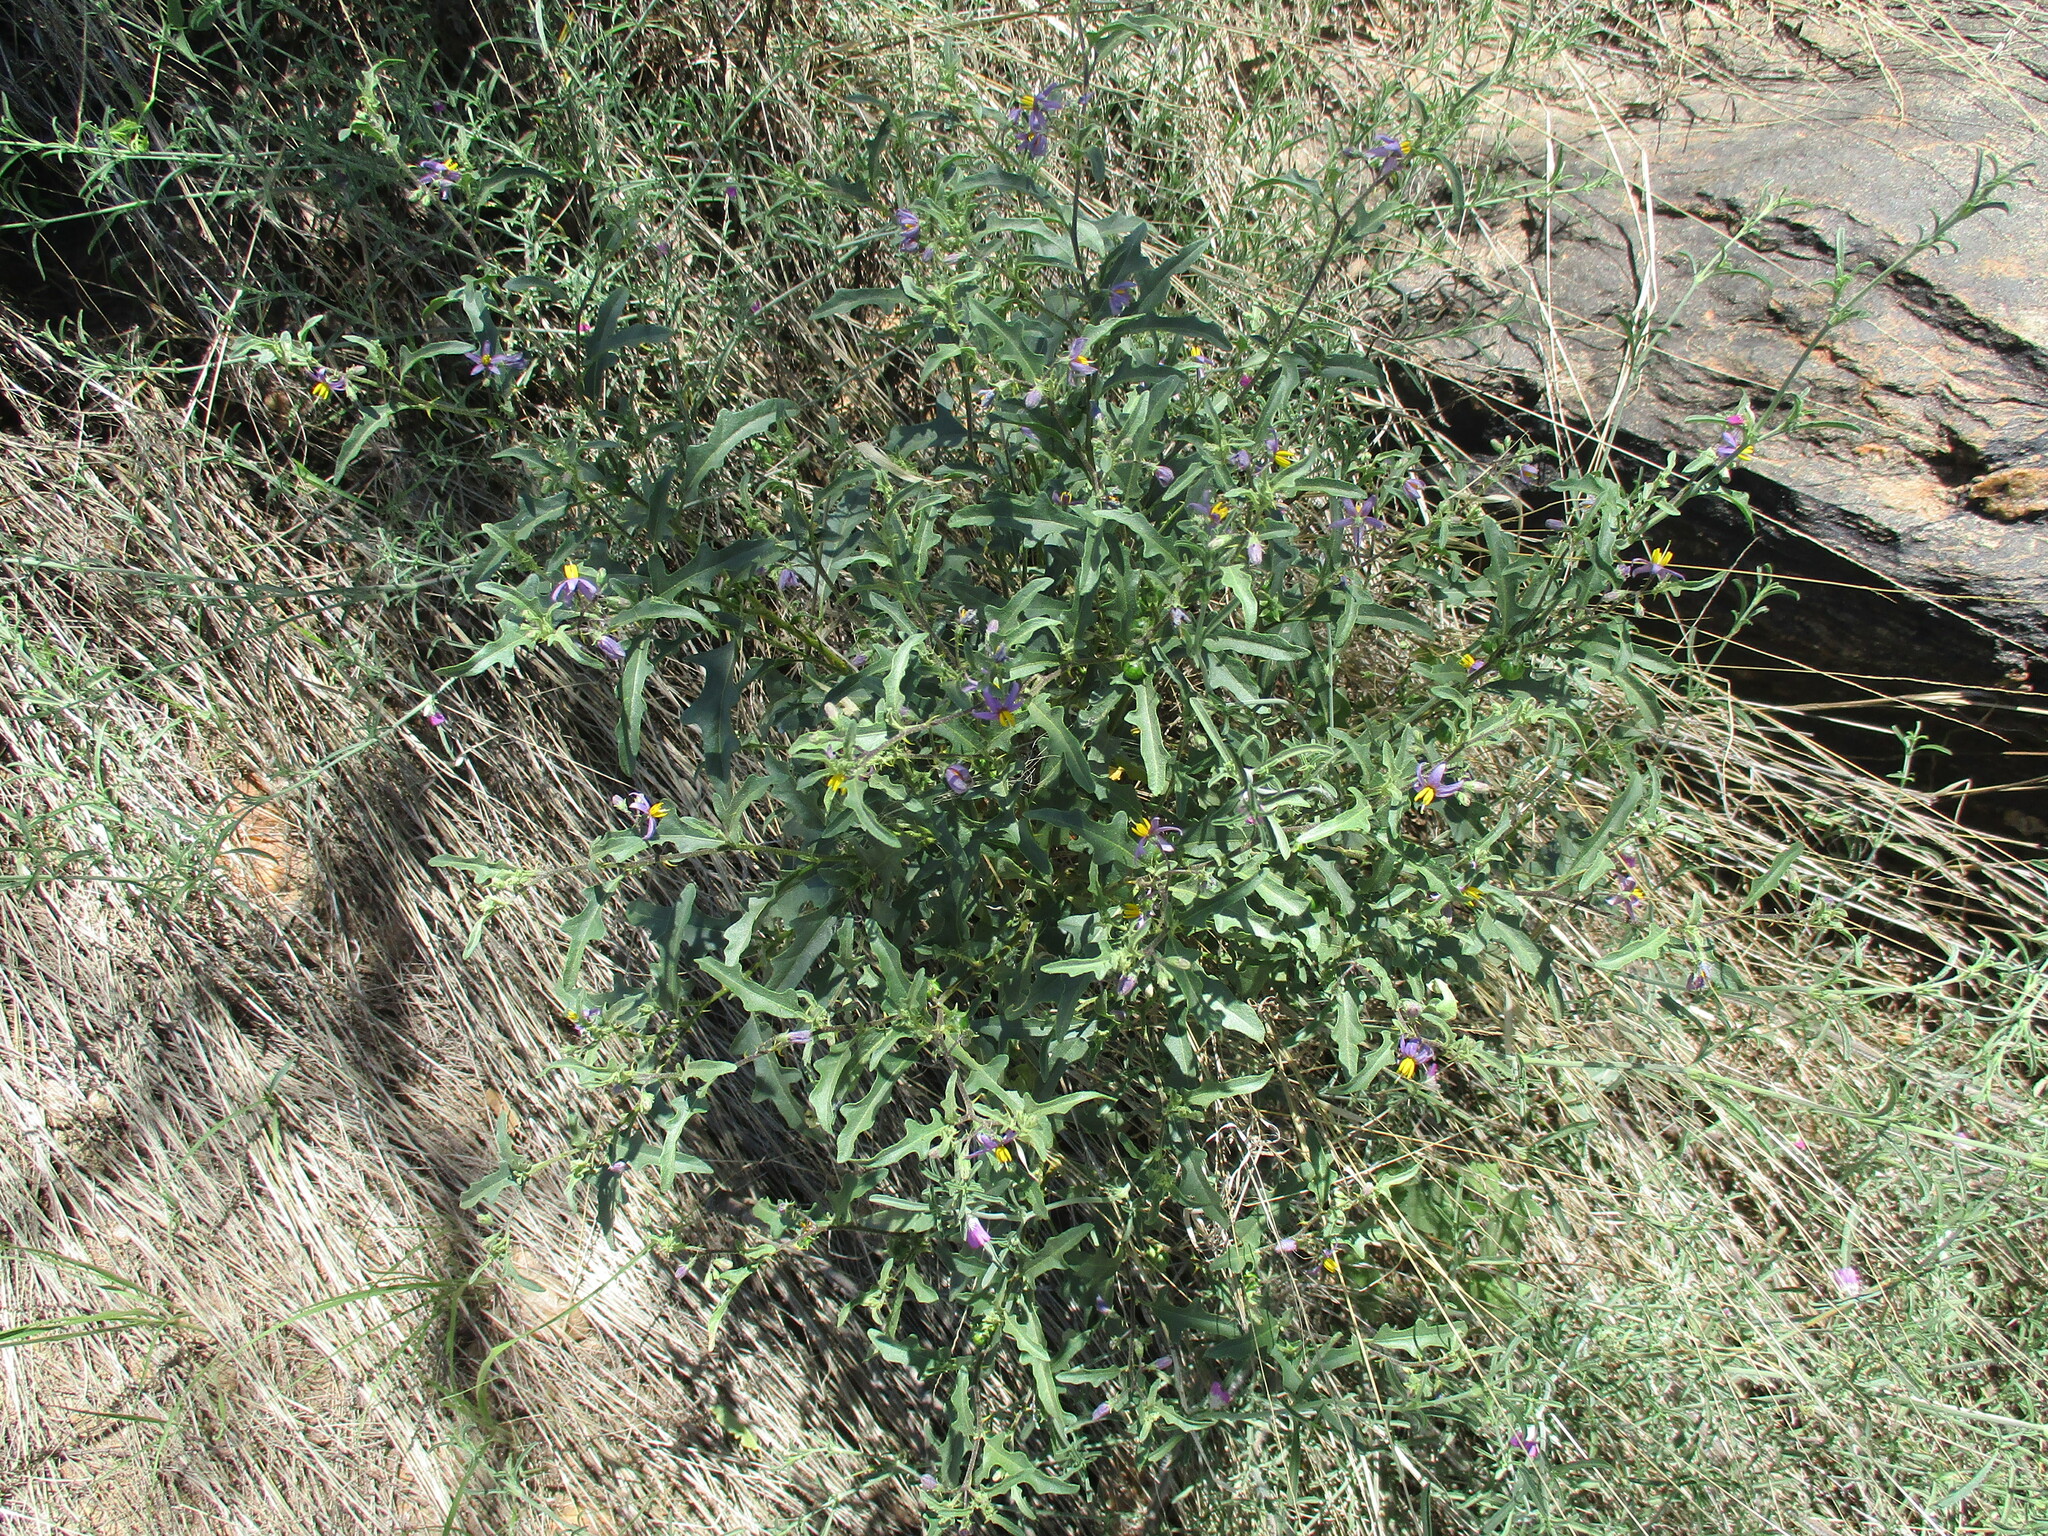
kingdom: Plantae
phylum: Tracheophyta
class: Magnoliopsida
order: Solanales
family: Solanaceae
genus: Solanum
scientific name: Solanum capense
